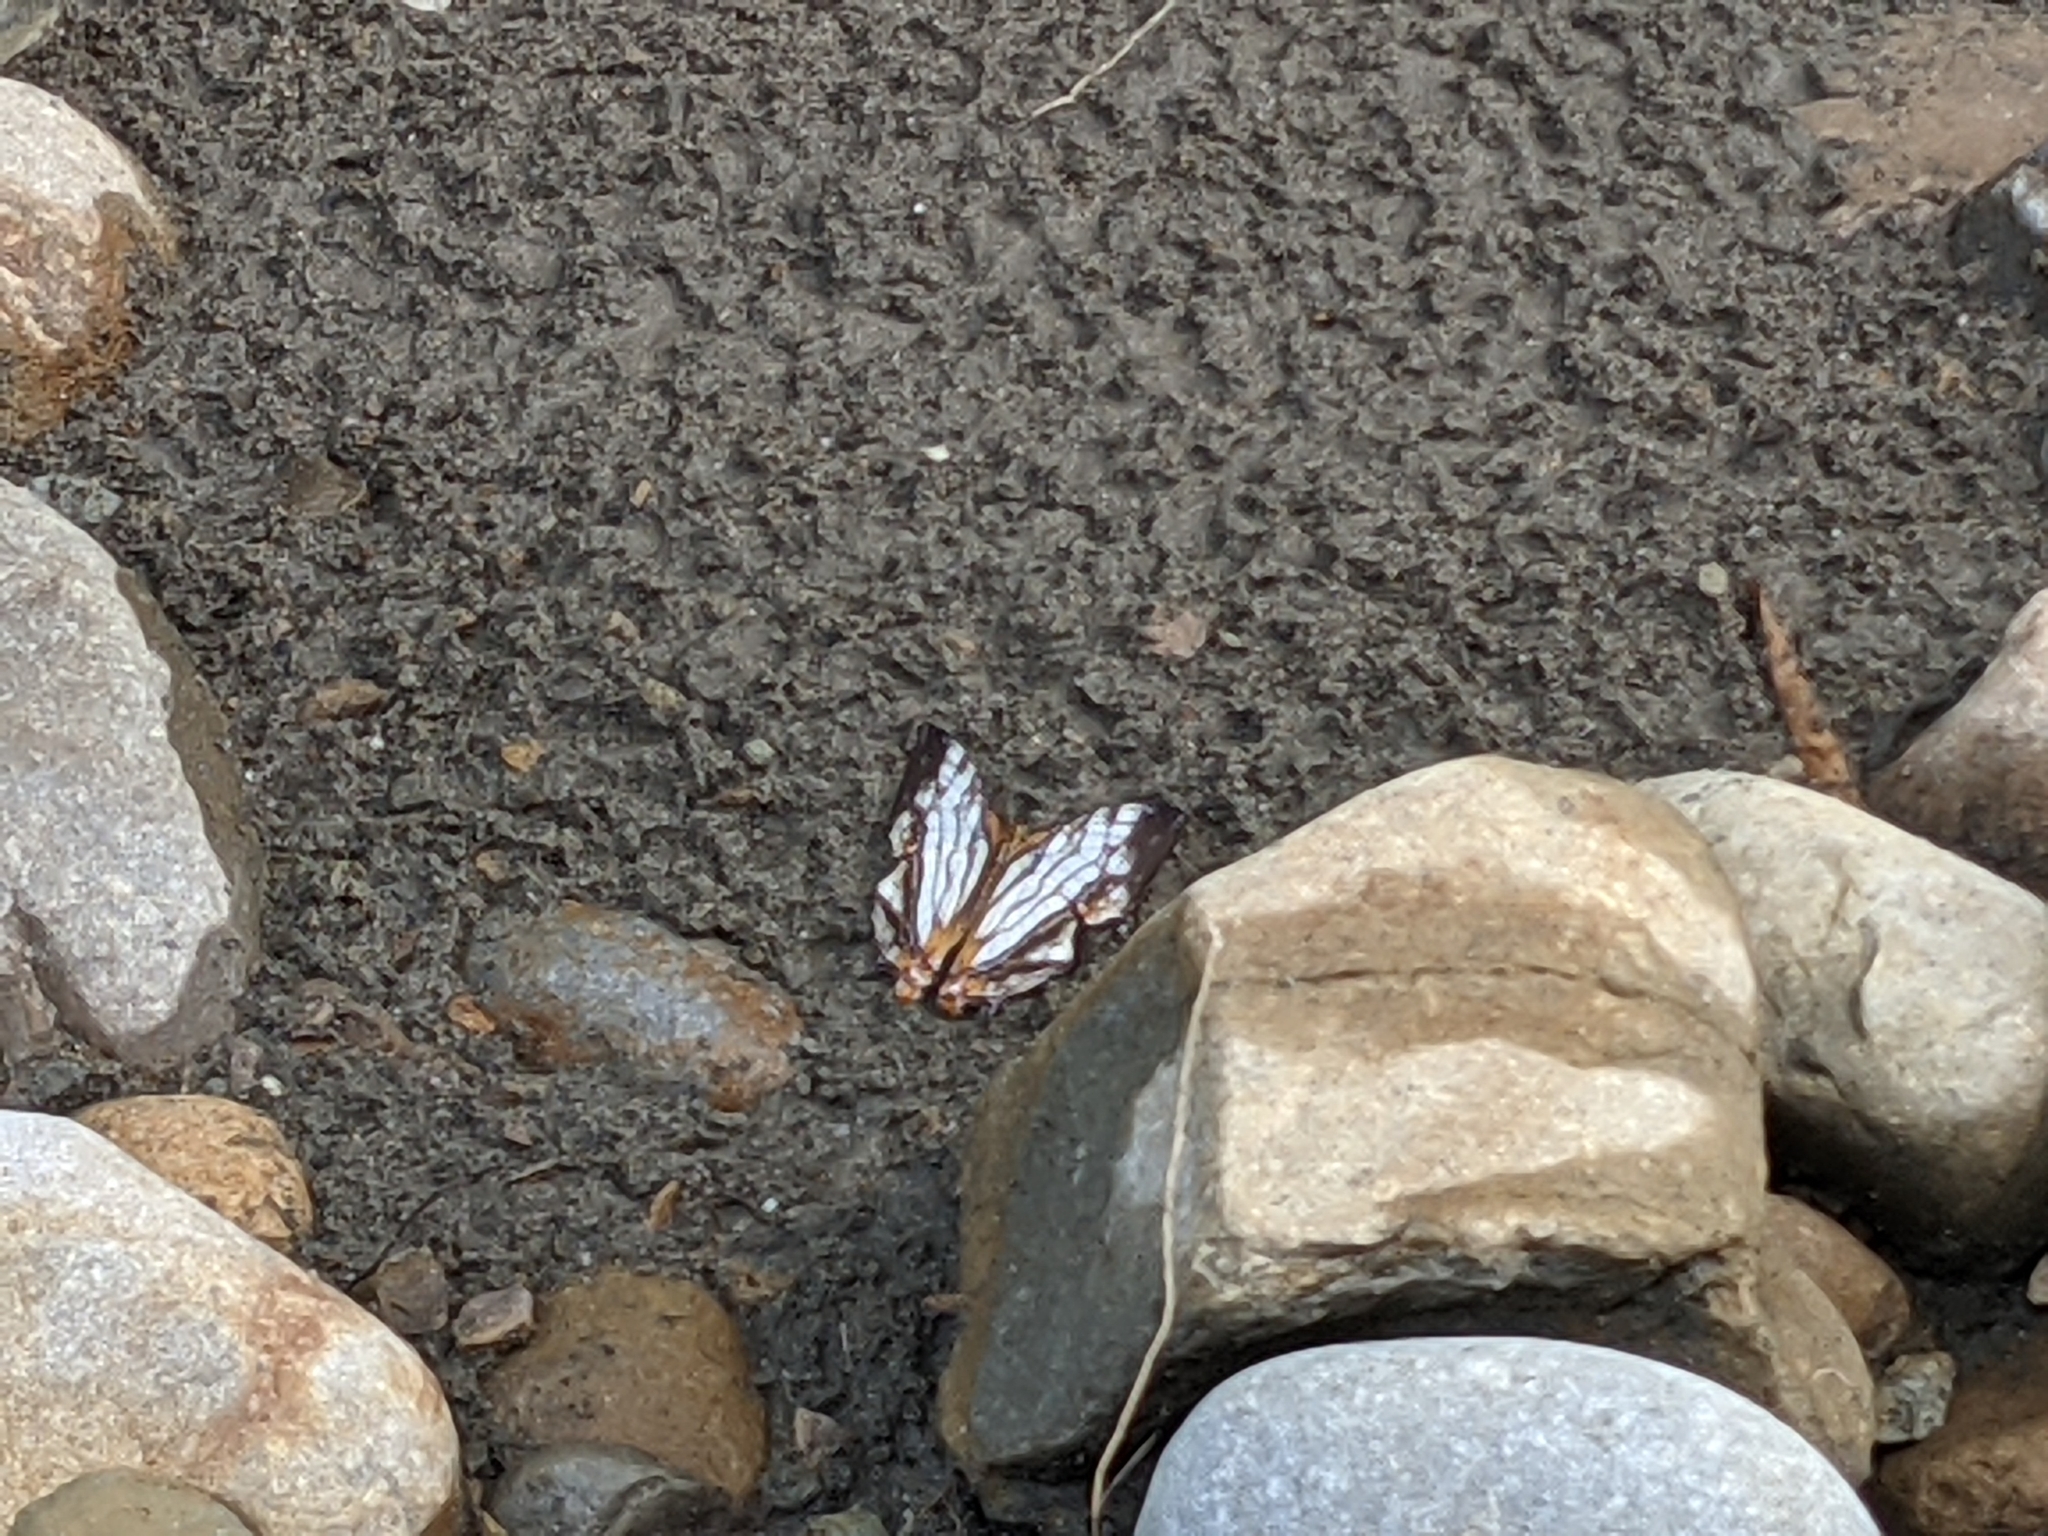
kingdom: Animalia
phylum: Arthropoda
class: Insecta
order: Lepidoptera
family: Nymphalidae
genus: Cyrestis
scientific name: Cyrestis thyodamas
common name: Common mapwing
